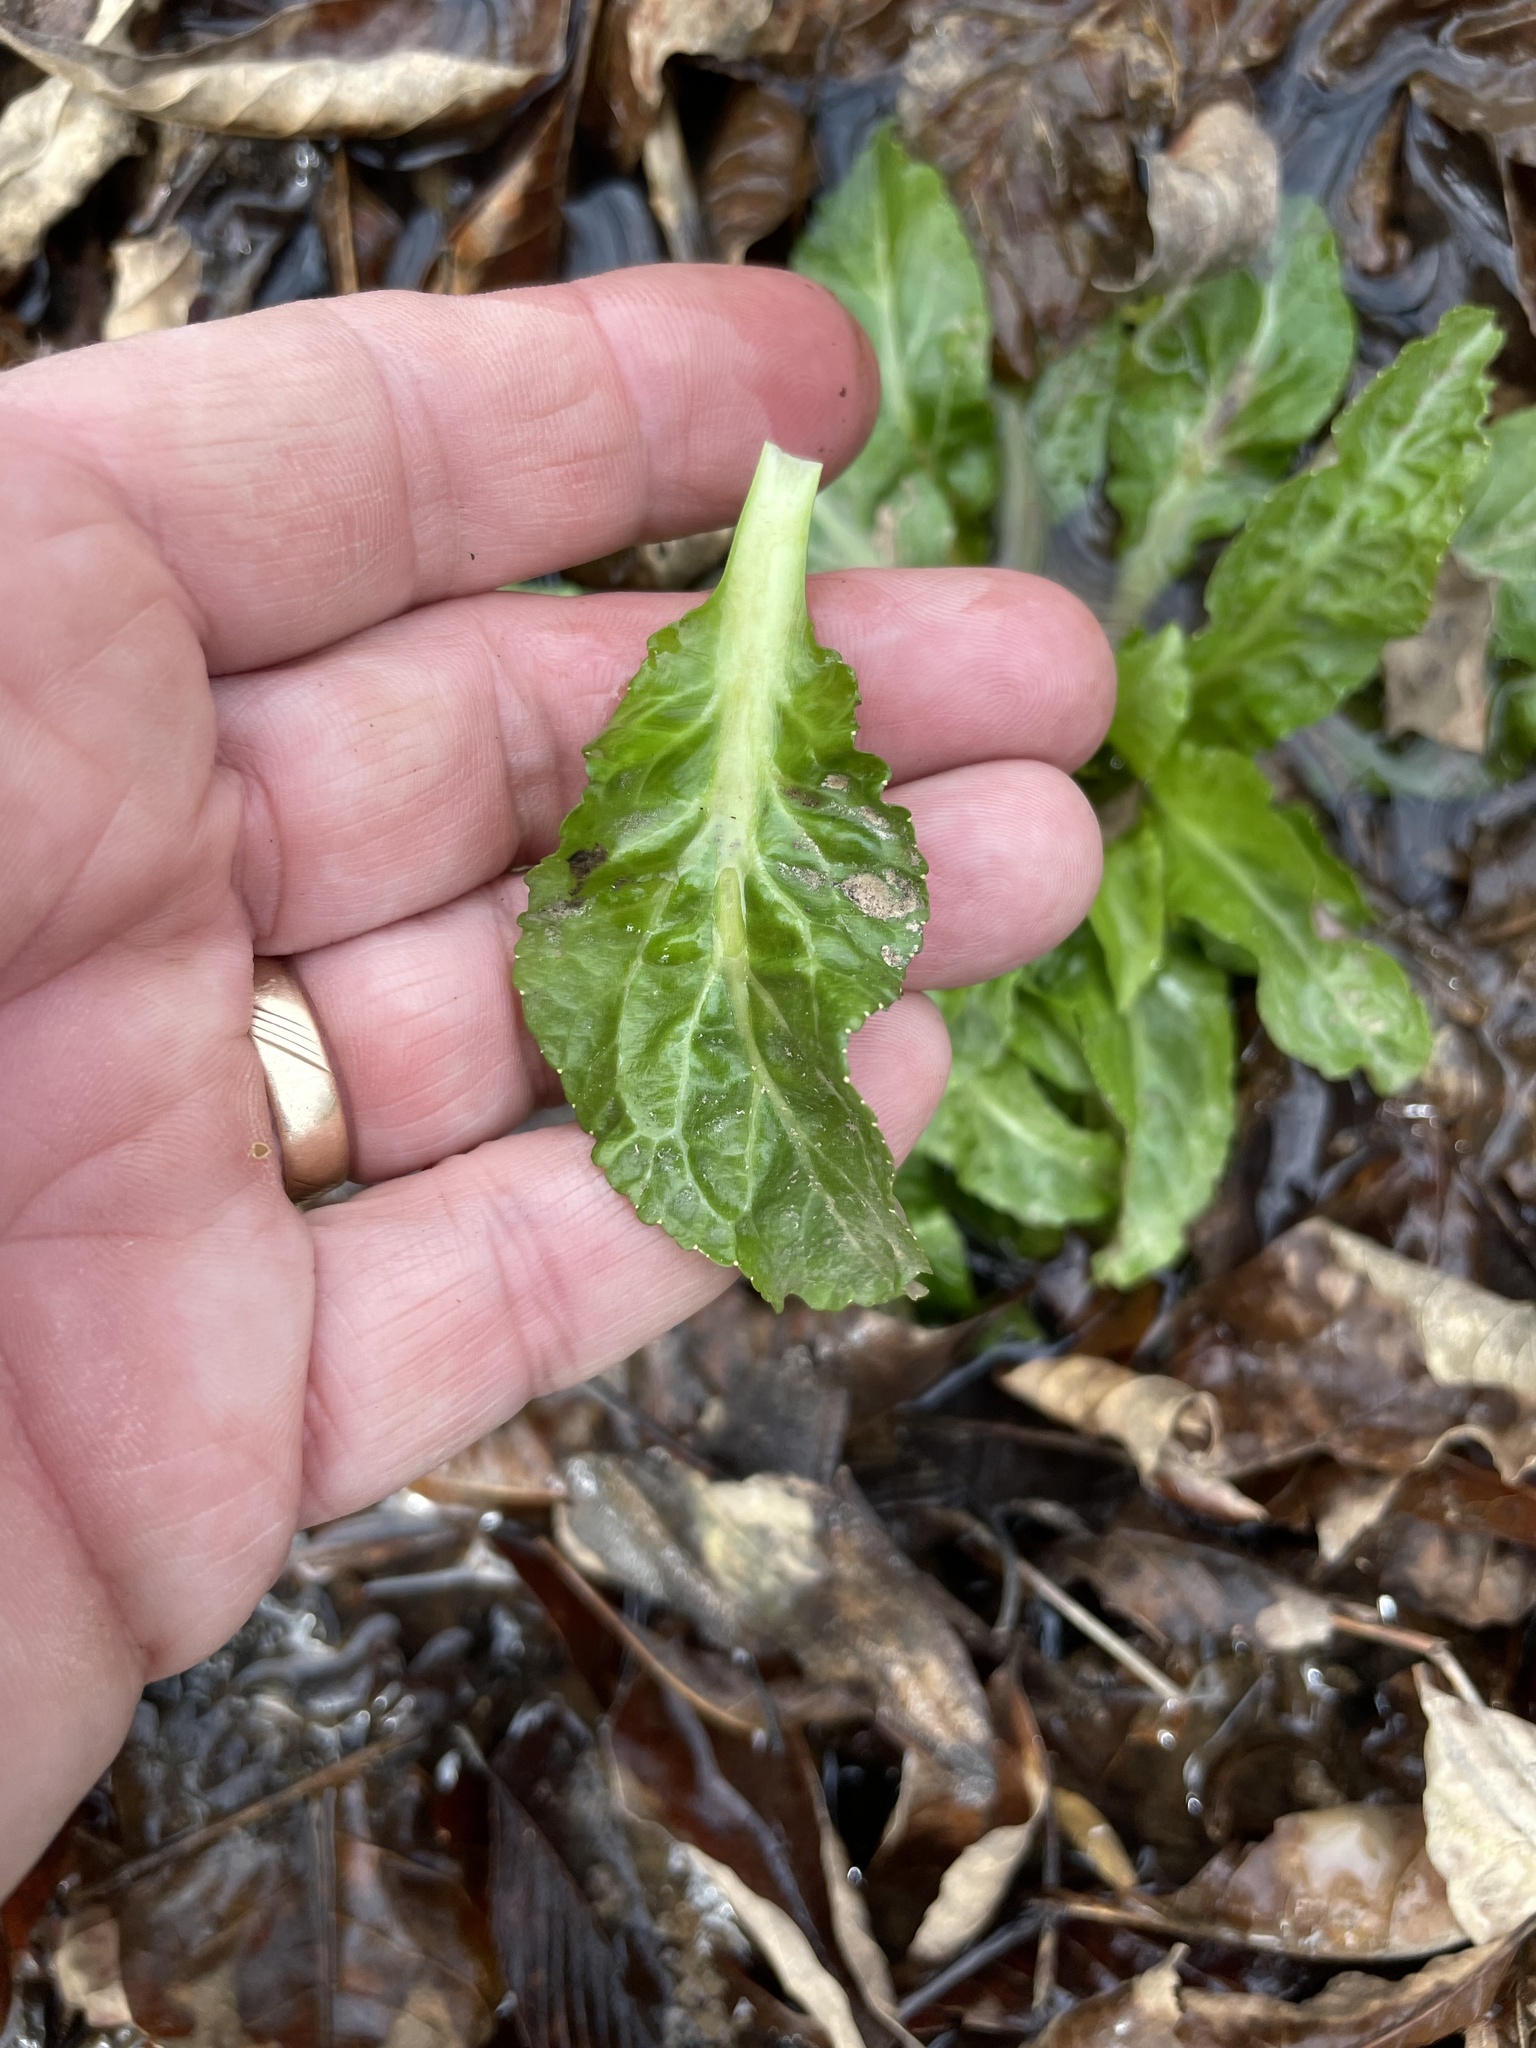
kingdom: Plantae
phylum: Tracheophyta
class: Magnoliopsida
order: Asterales
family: Campanulaceae
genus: Lobelia
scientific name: Lobelia cardinalis
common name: Cardinal flower
